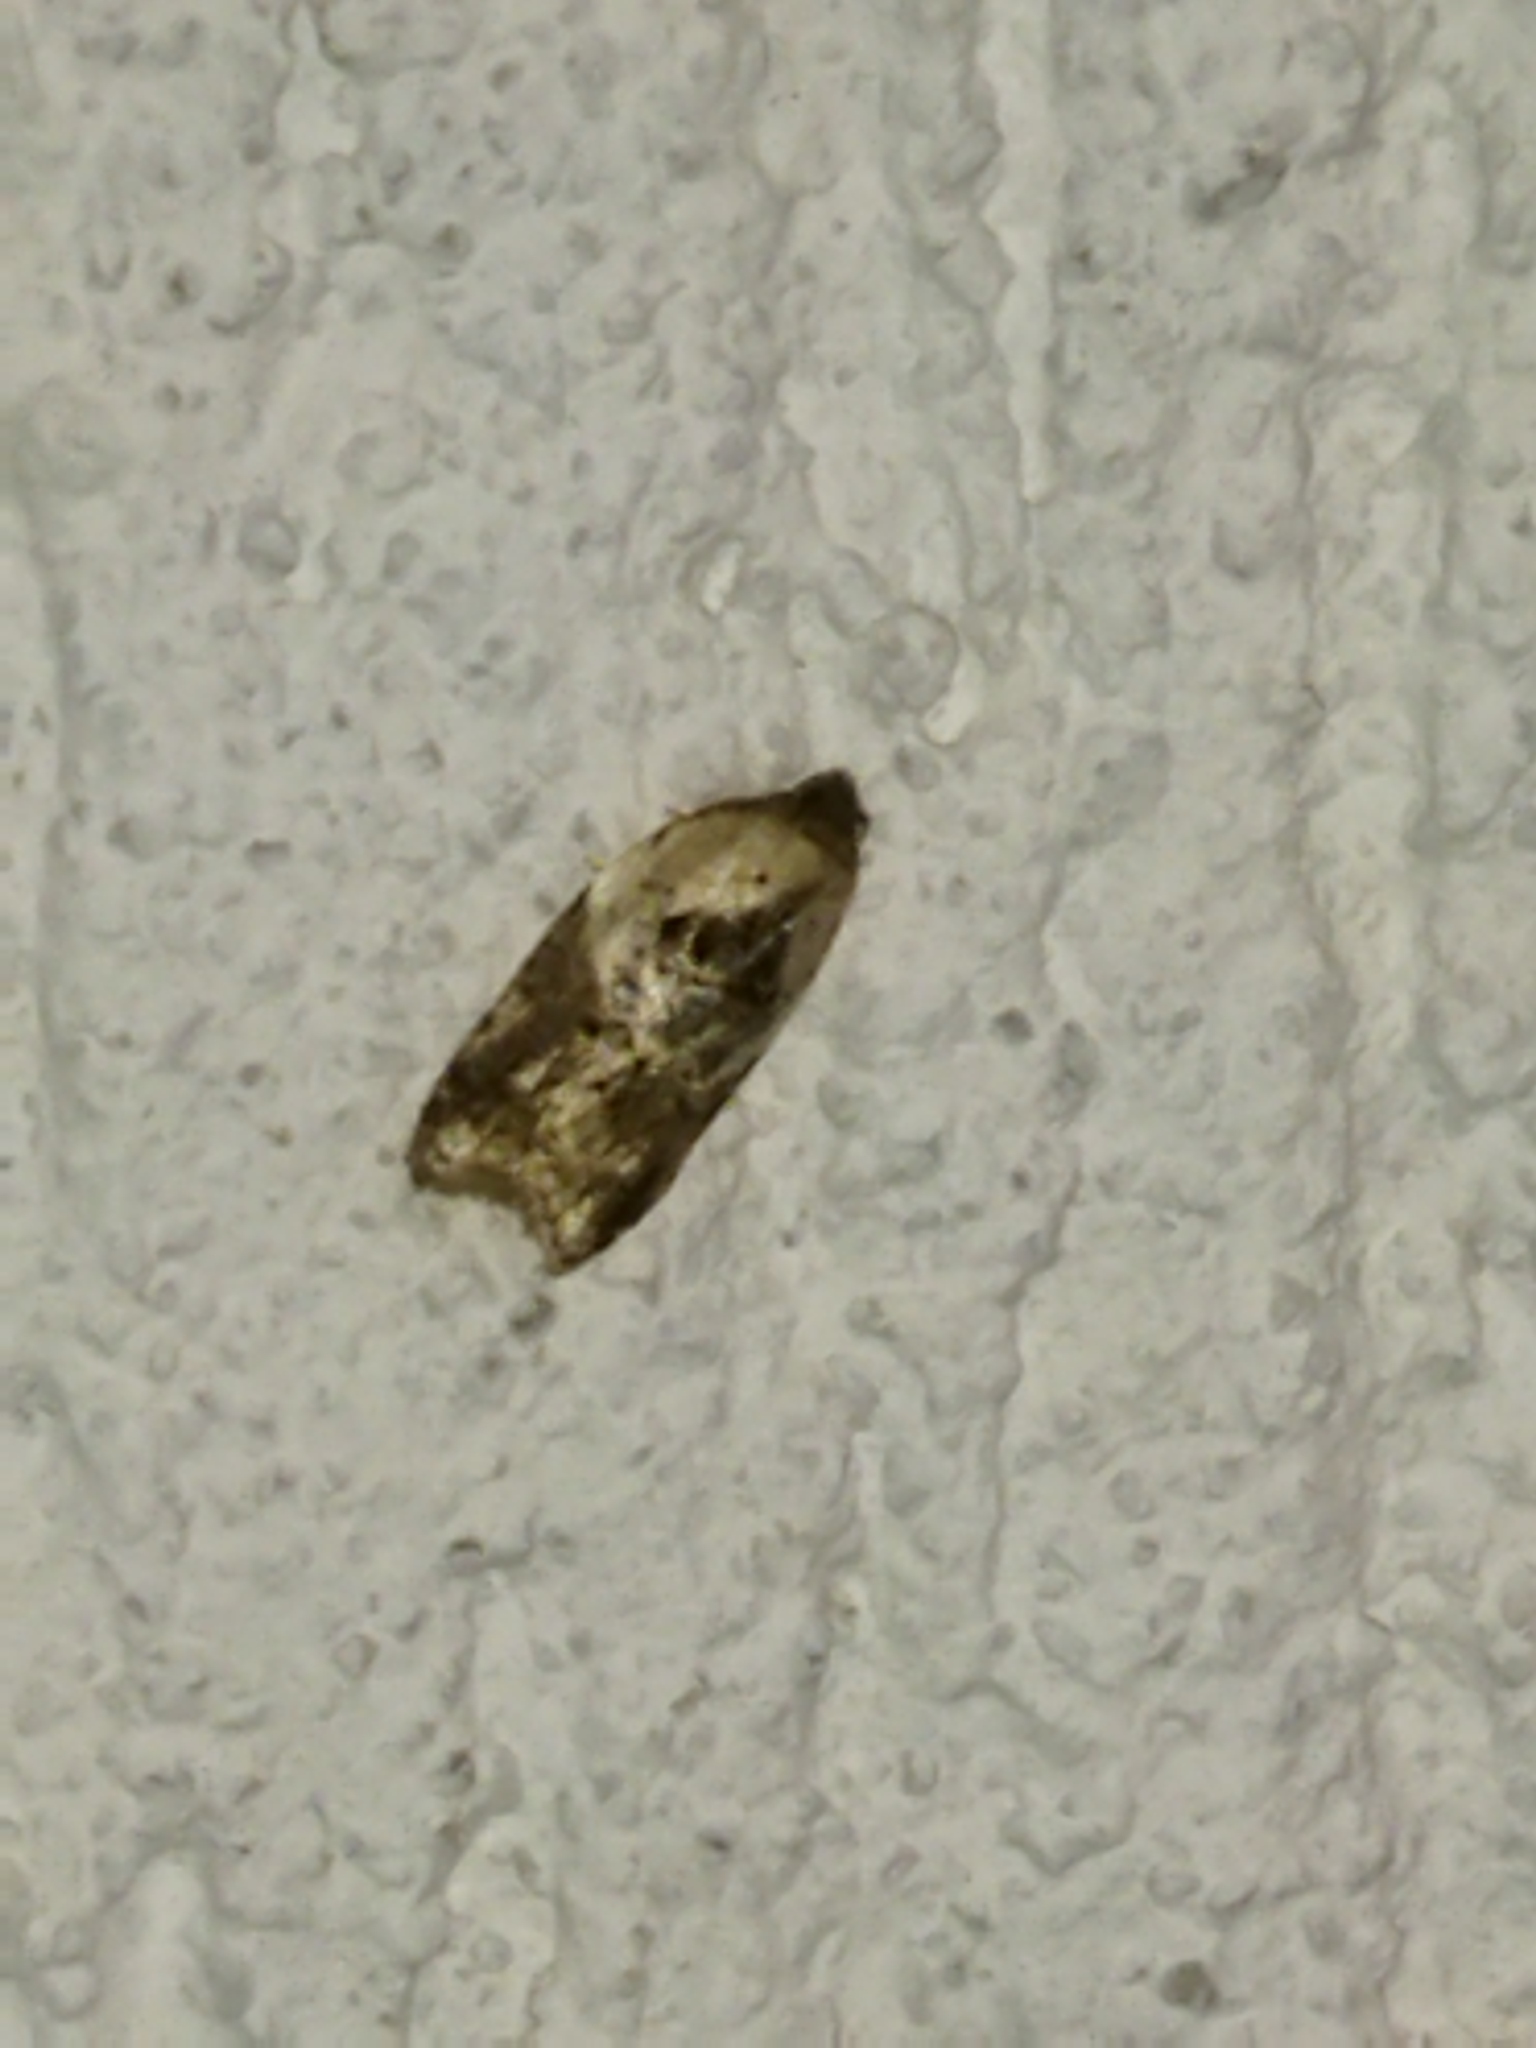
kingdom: Animalia
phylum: Arthropoda
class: Insecta
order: Lepidoptera
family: Tortricidae
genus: Acleris
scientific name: Acleris variegana
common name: Garden rose tortrix
